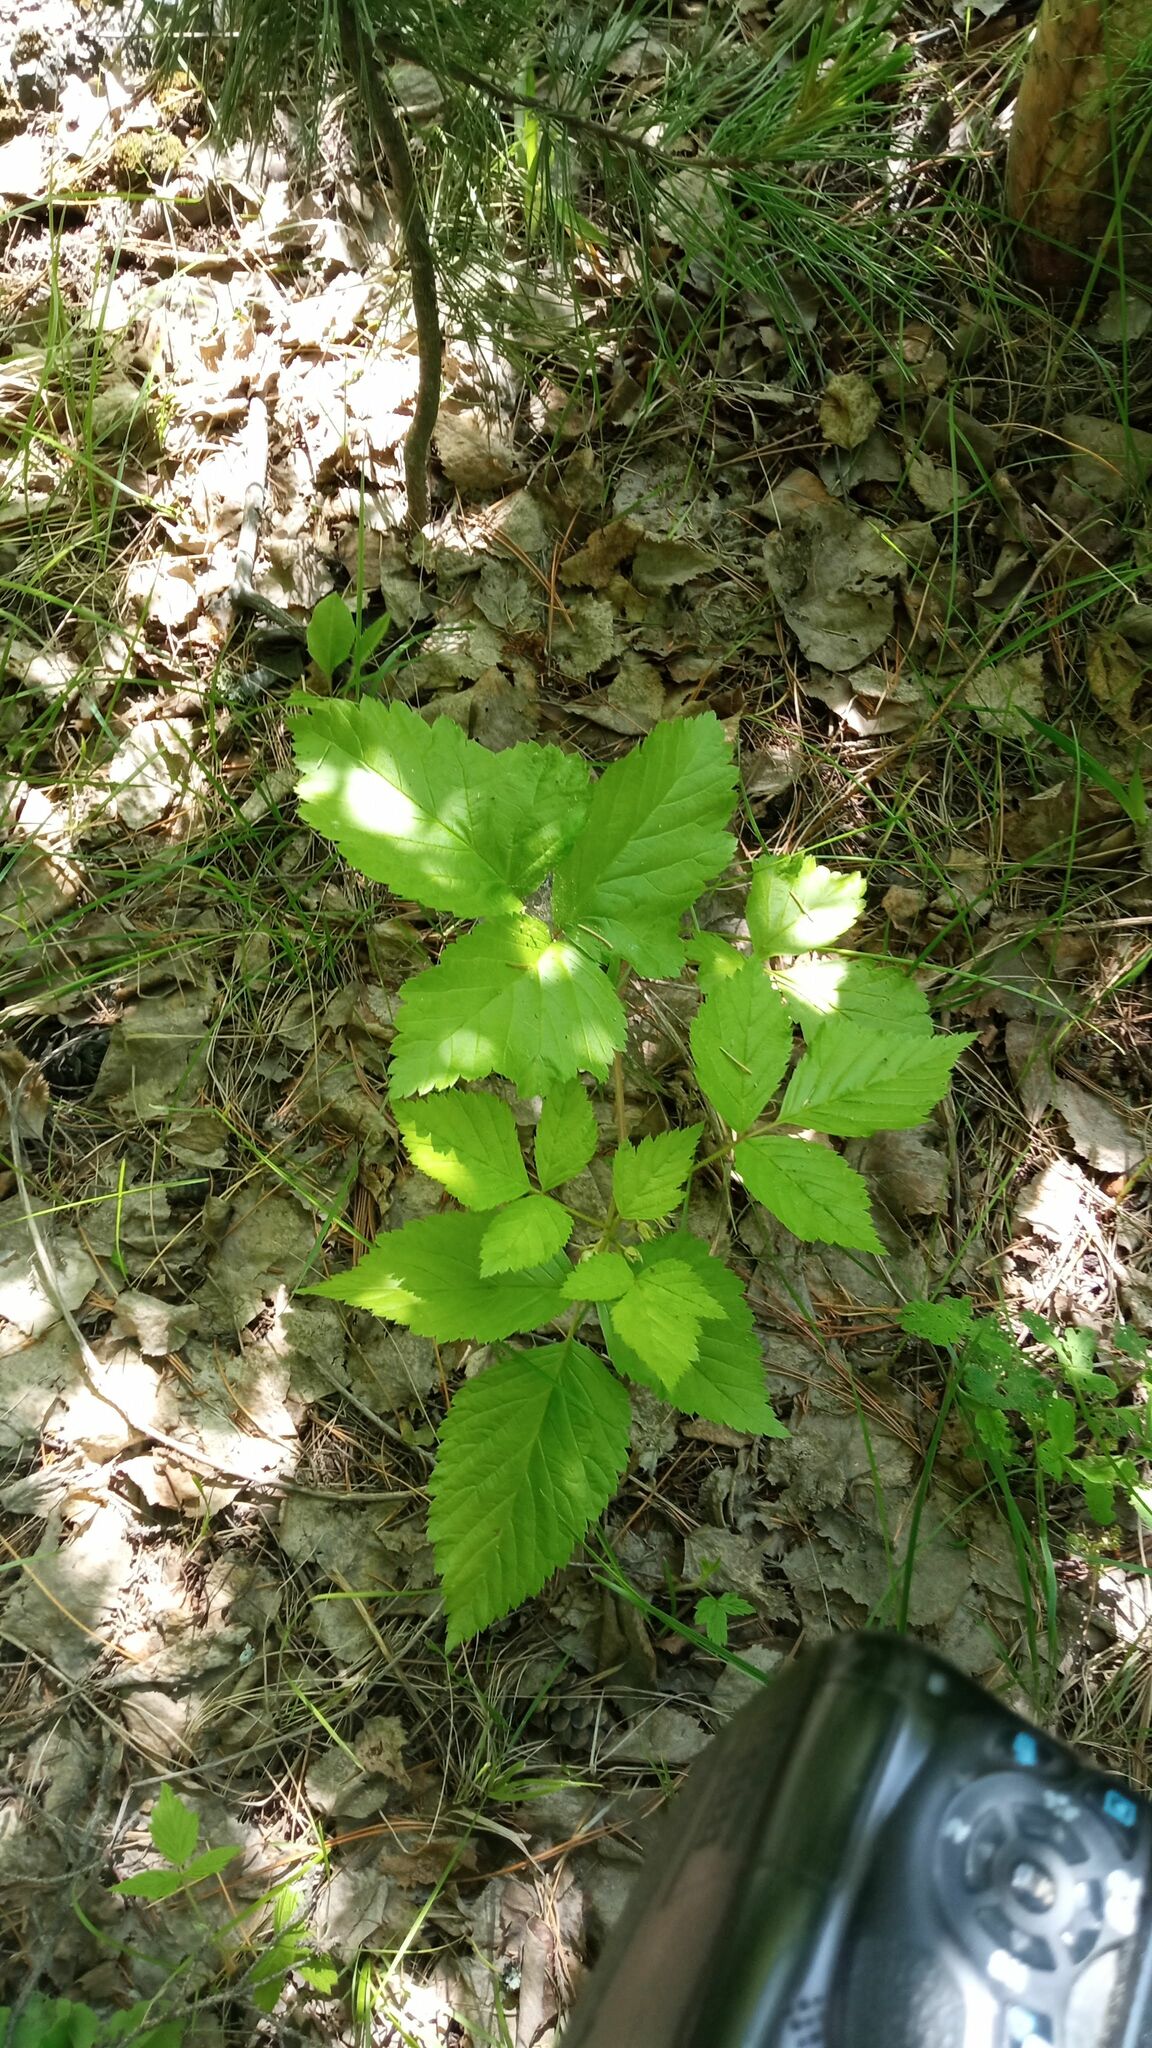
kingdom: Plantae
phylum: Tracheophyta
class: Magnoliopsida
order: Rosales
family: Rosaceae
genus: Rubus
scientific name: Rubus saxatilis
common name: Stone bramble
